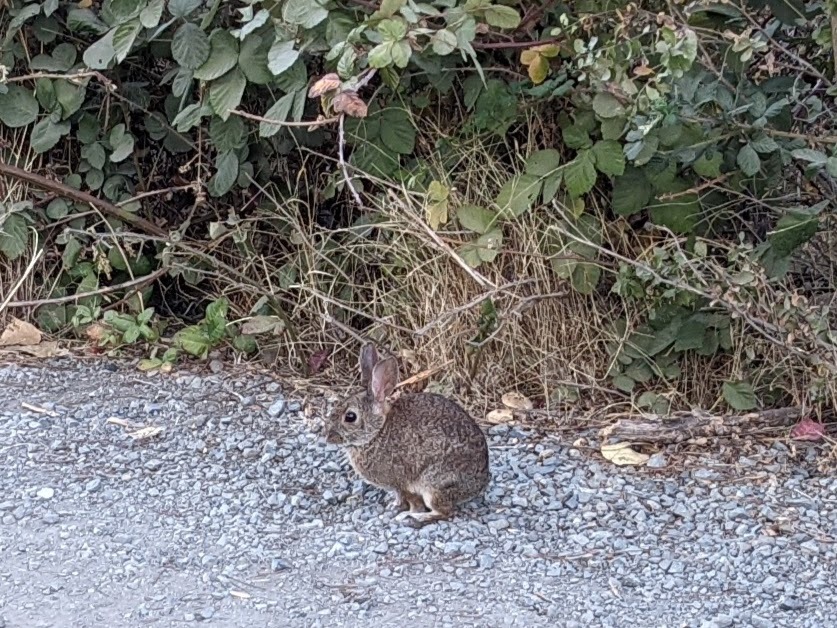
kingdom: Animalia
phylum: Chordata
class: Mammalia
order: Lagomorpha
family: Leporidae
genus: Sylvilagus
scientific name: Sylvilagus bachmani
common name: Brush rabbit
